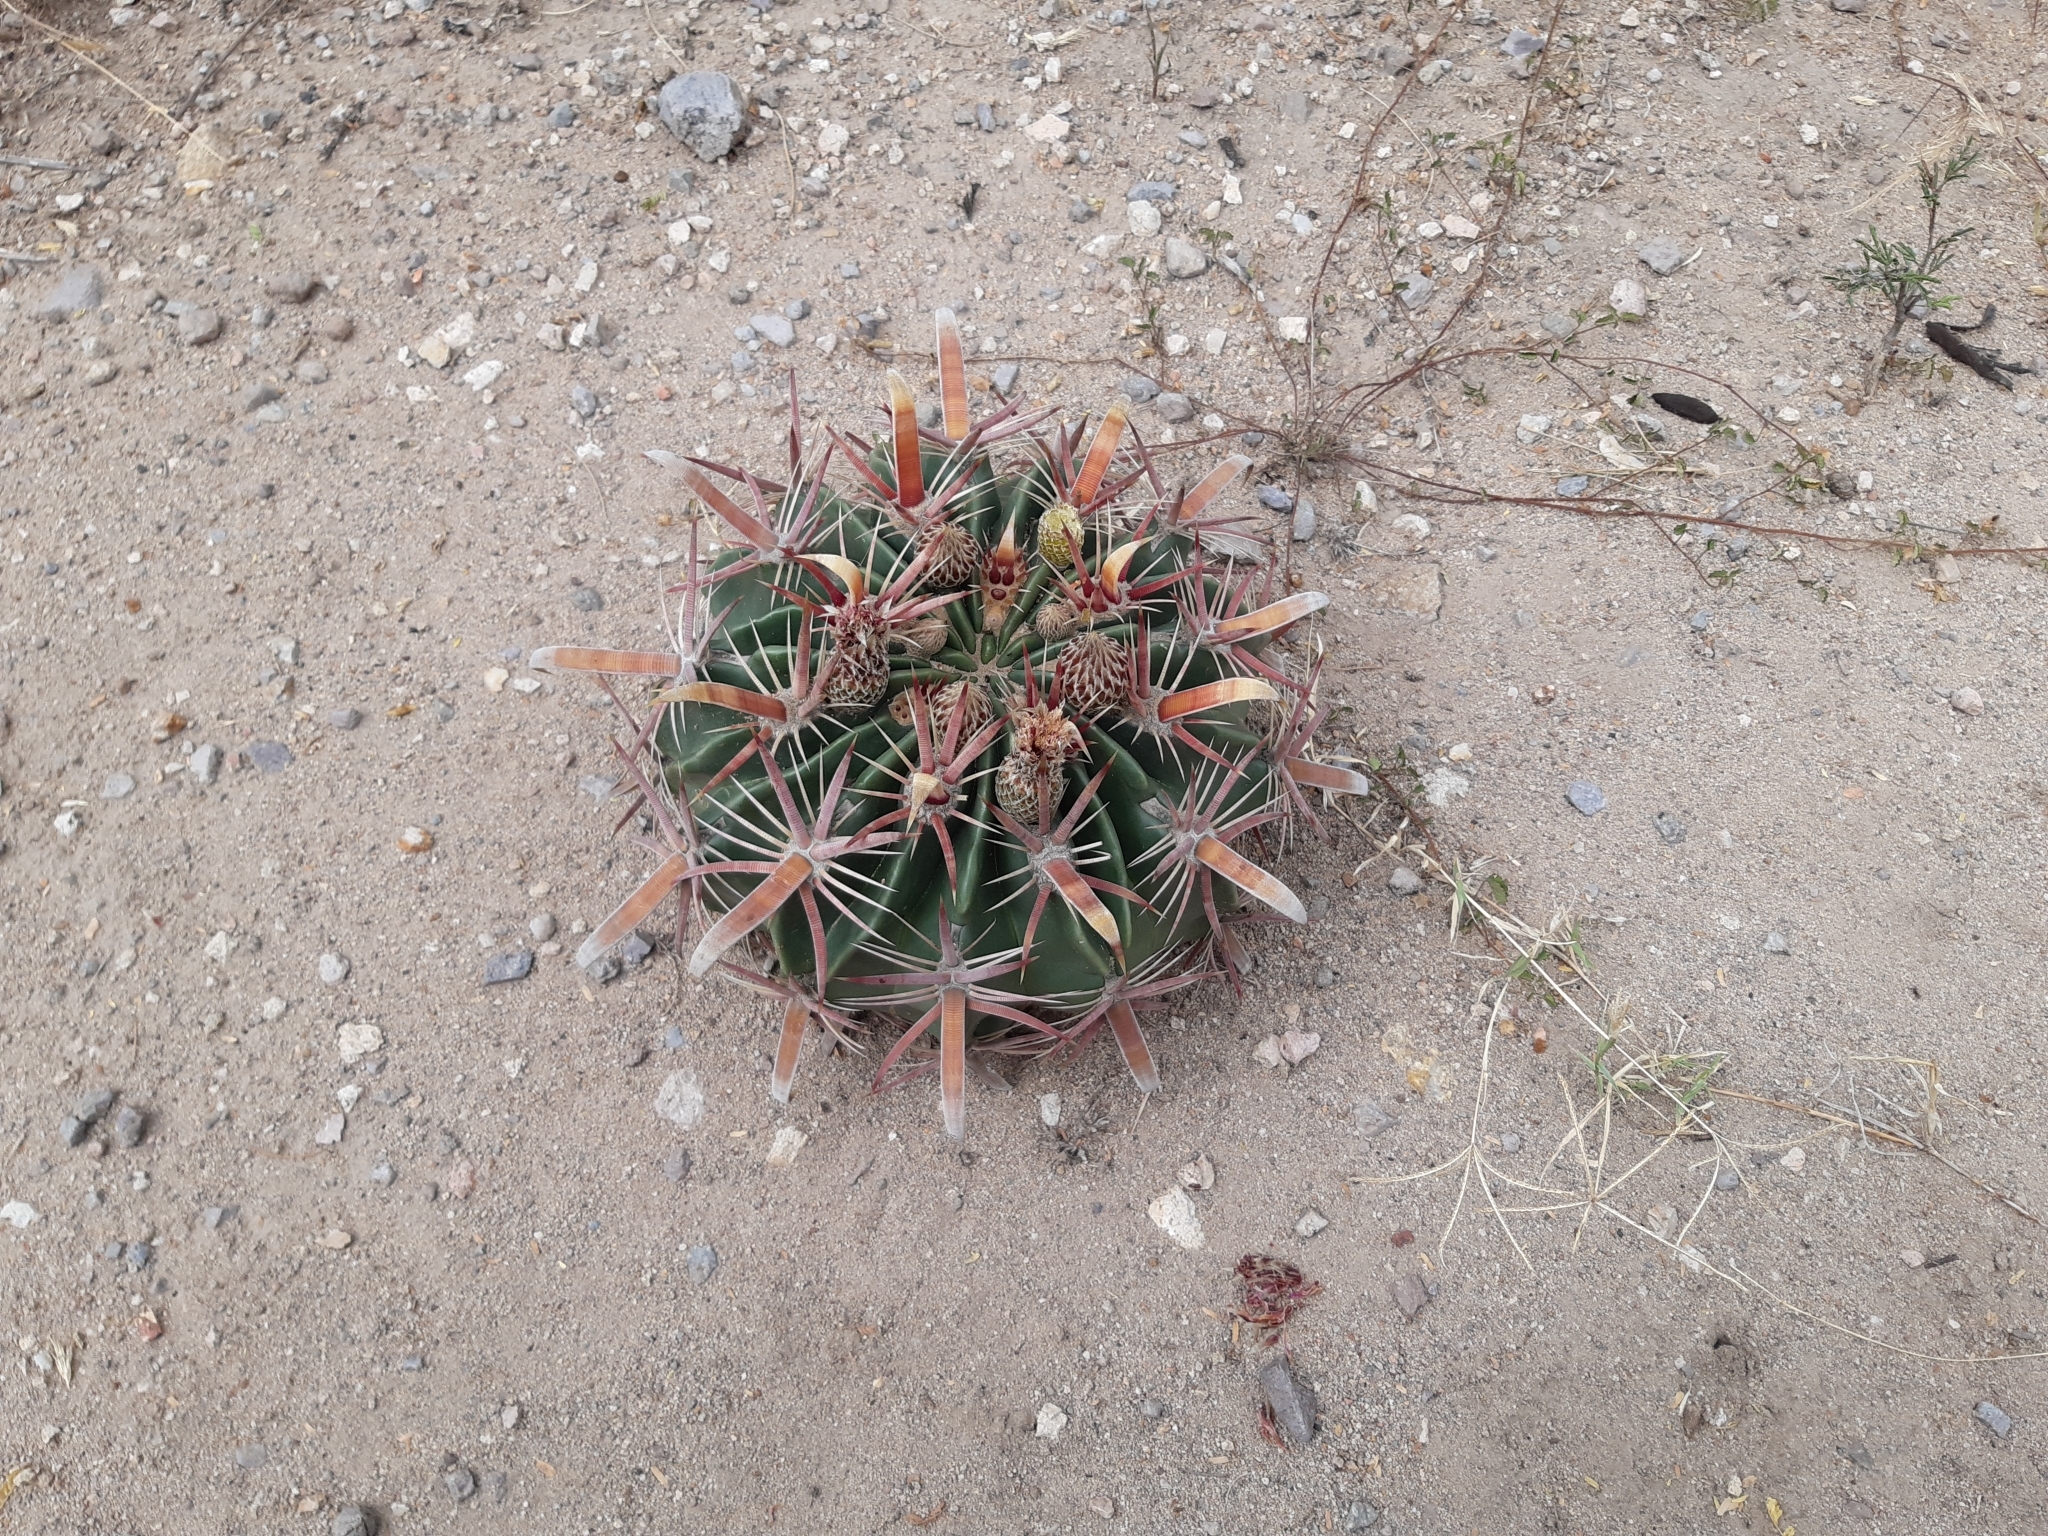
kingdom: Plantae
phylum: Tracheophyta
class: Magnoliopsida
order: Caryophyllales
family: Cactaceae
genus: Ferocactus
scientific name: Ferocactus latispinus
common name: Devil's-tongue cactus
